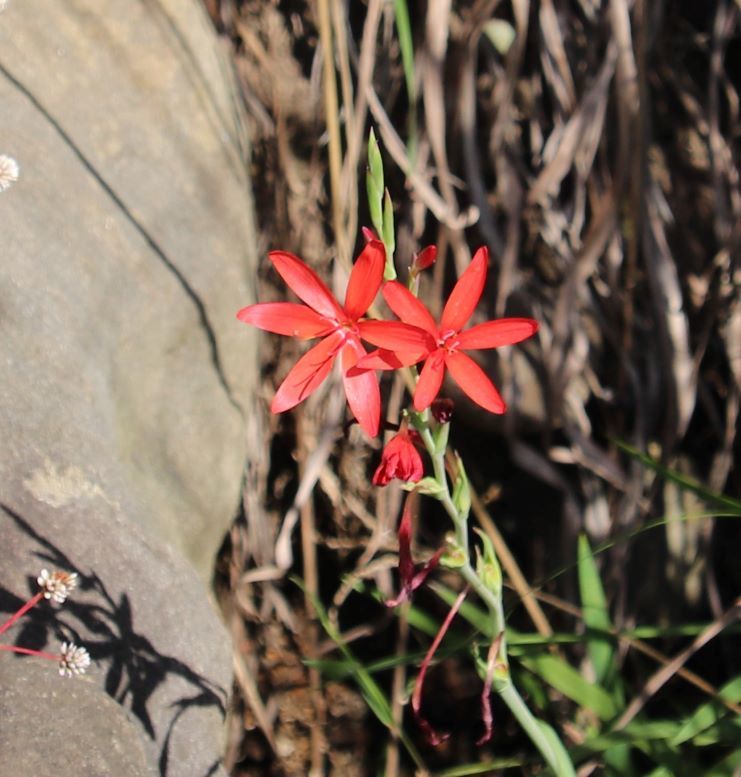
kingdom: Plantae
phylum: Tracheophyta
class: Liliopsida
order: Asparagales
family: Iridaceae
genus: Hesperantha
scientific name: Hesperantha coccinea
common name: River-lily
